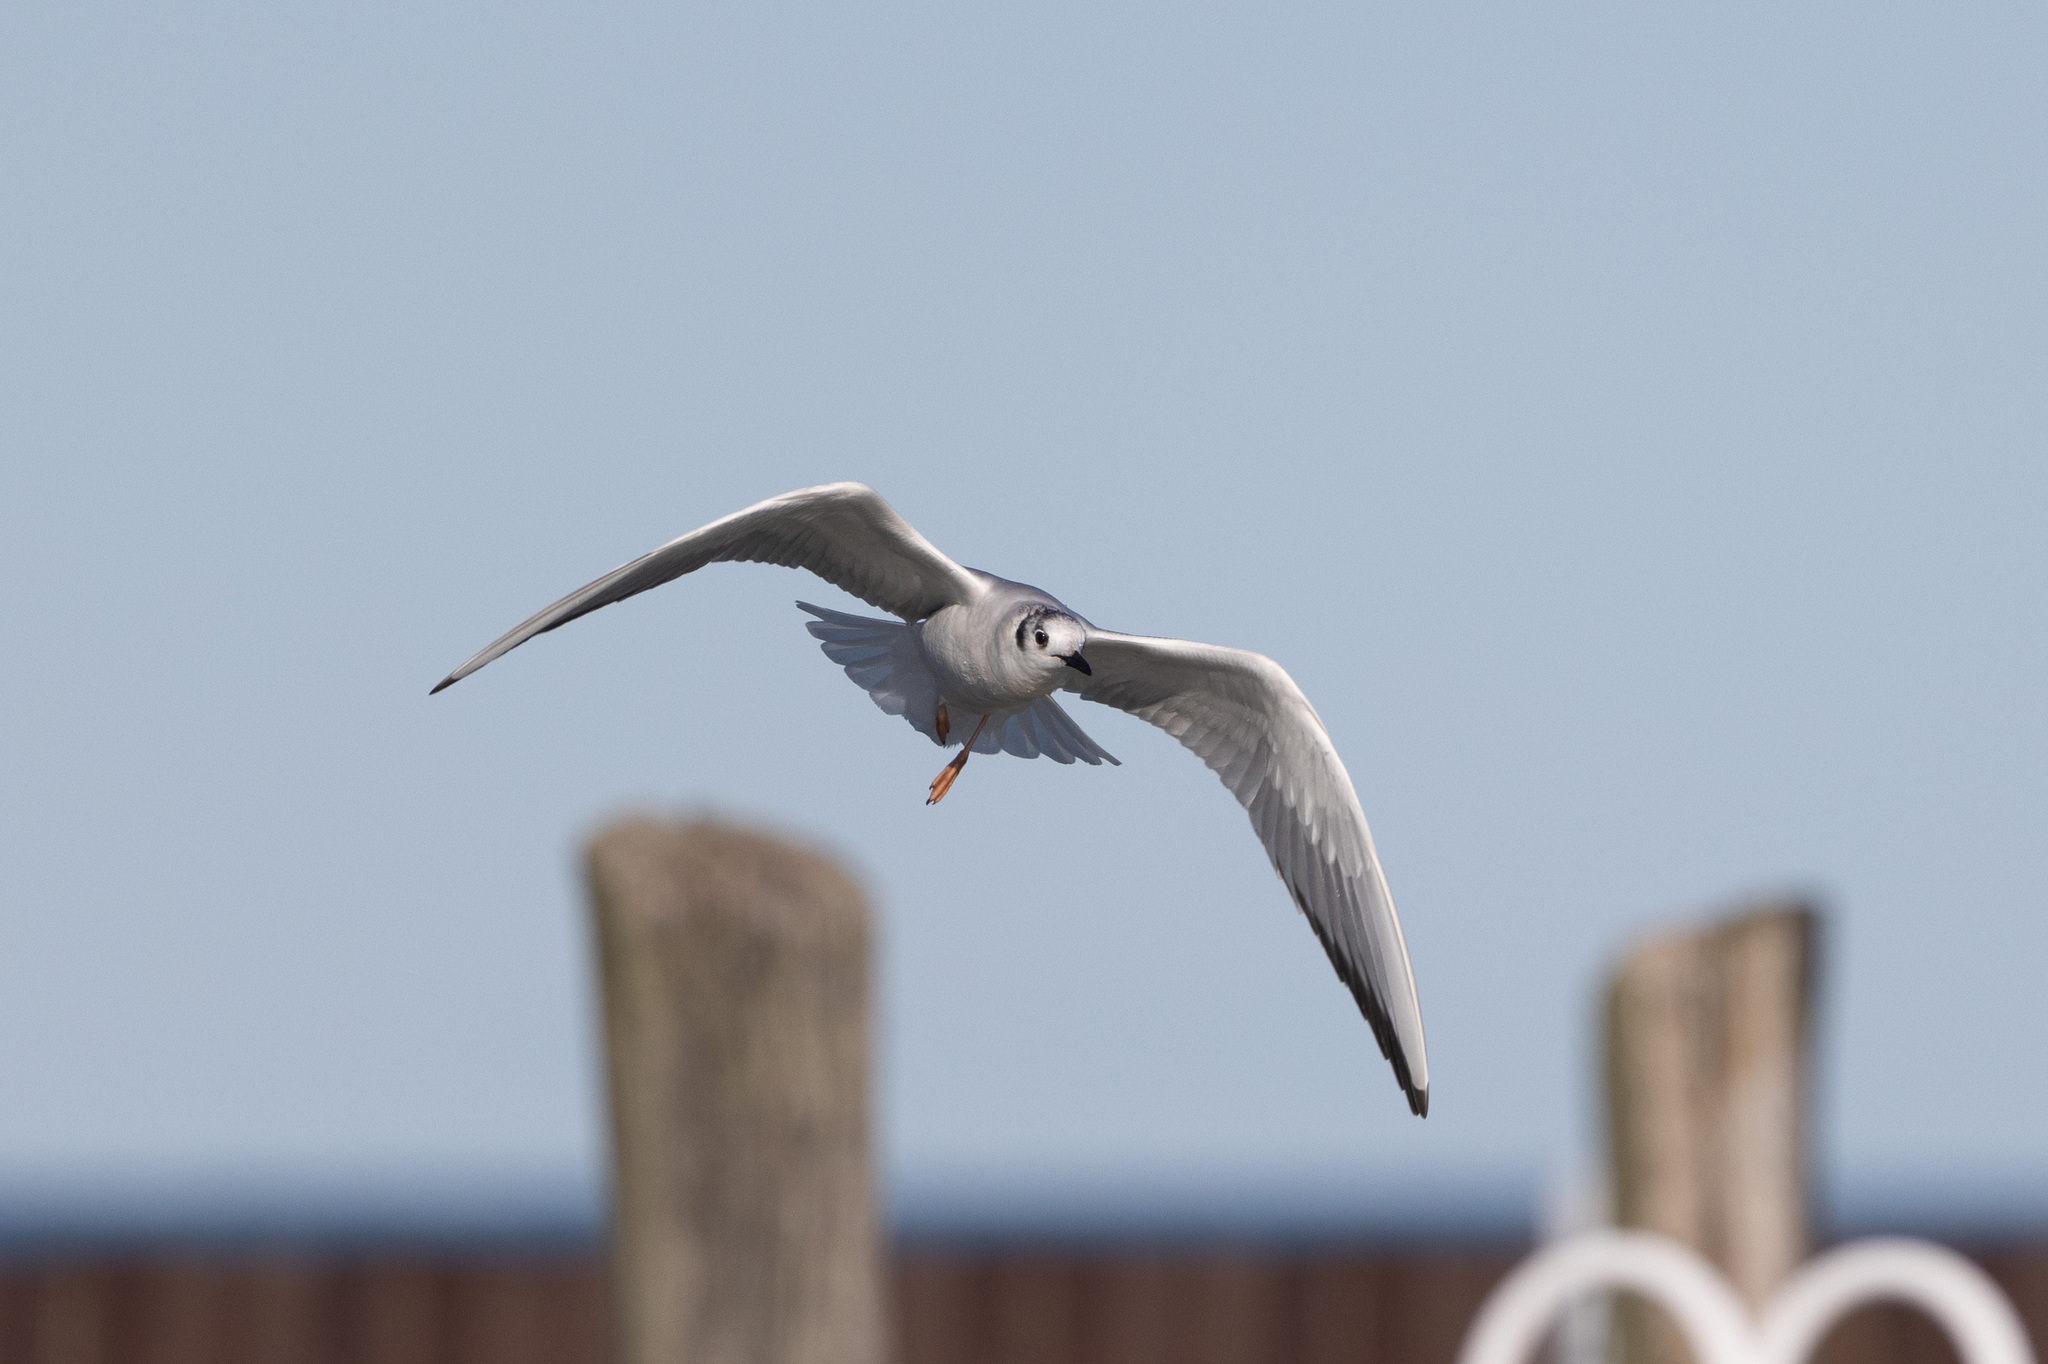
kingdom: Animalia
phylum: Chordata
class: Aves
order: Charadriiformes
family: Laridae
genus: Chroicocephalus
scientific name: Chroicocephalus philadelphia
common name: Bonaparte's gull
